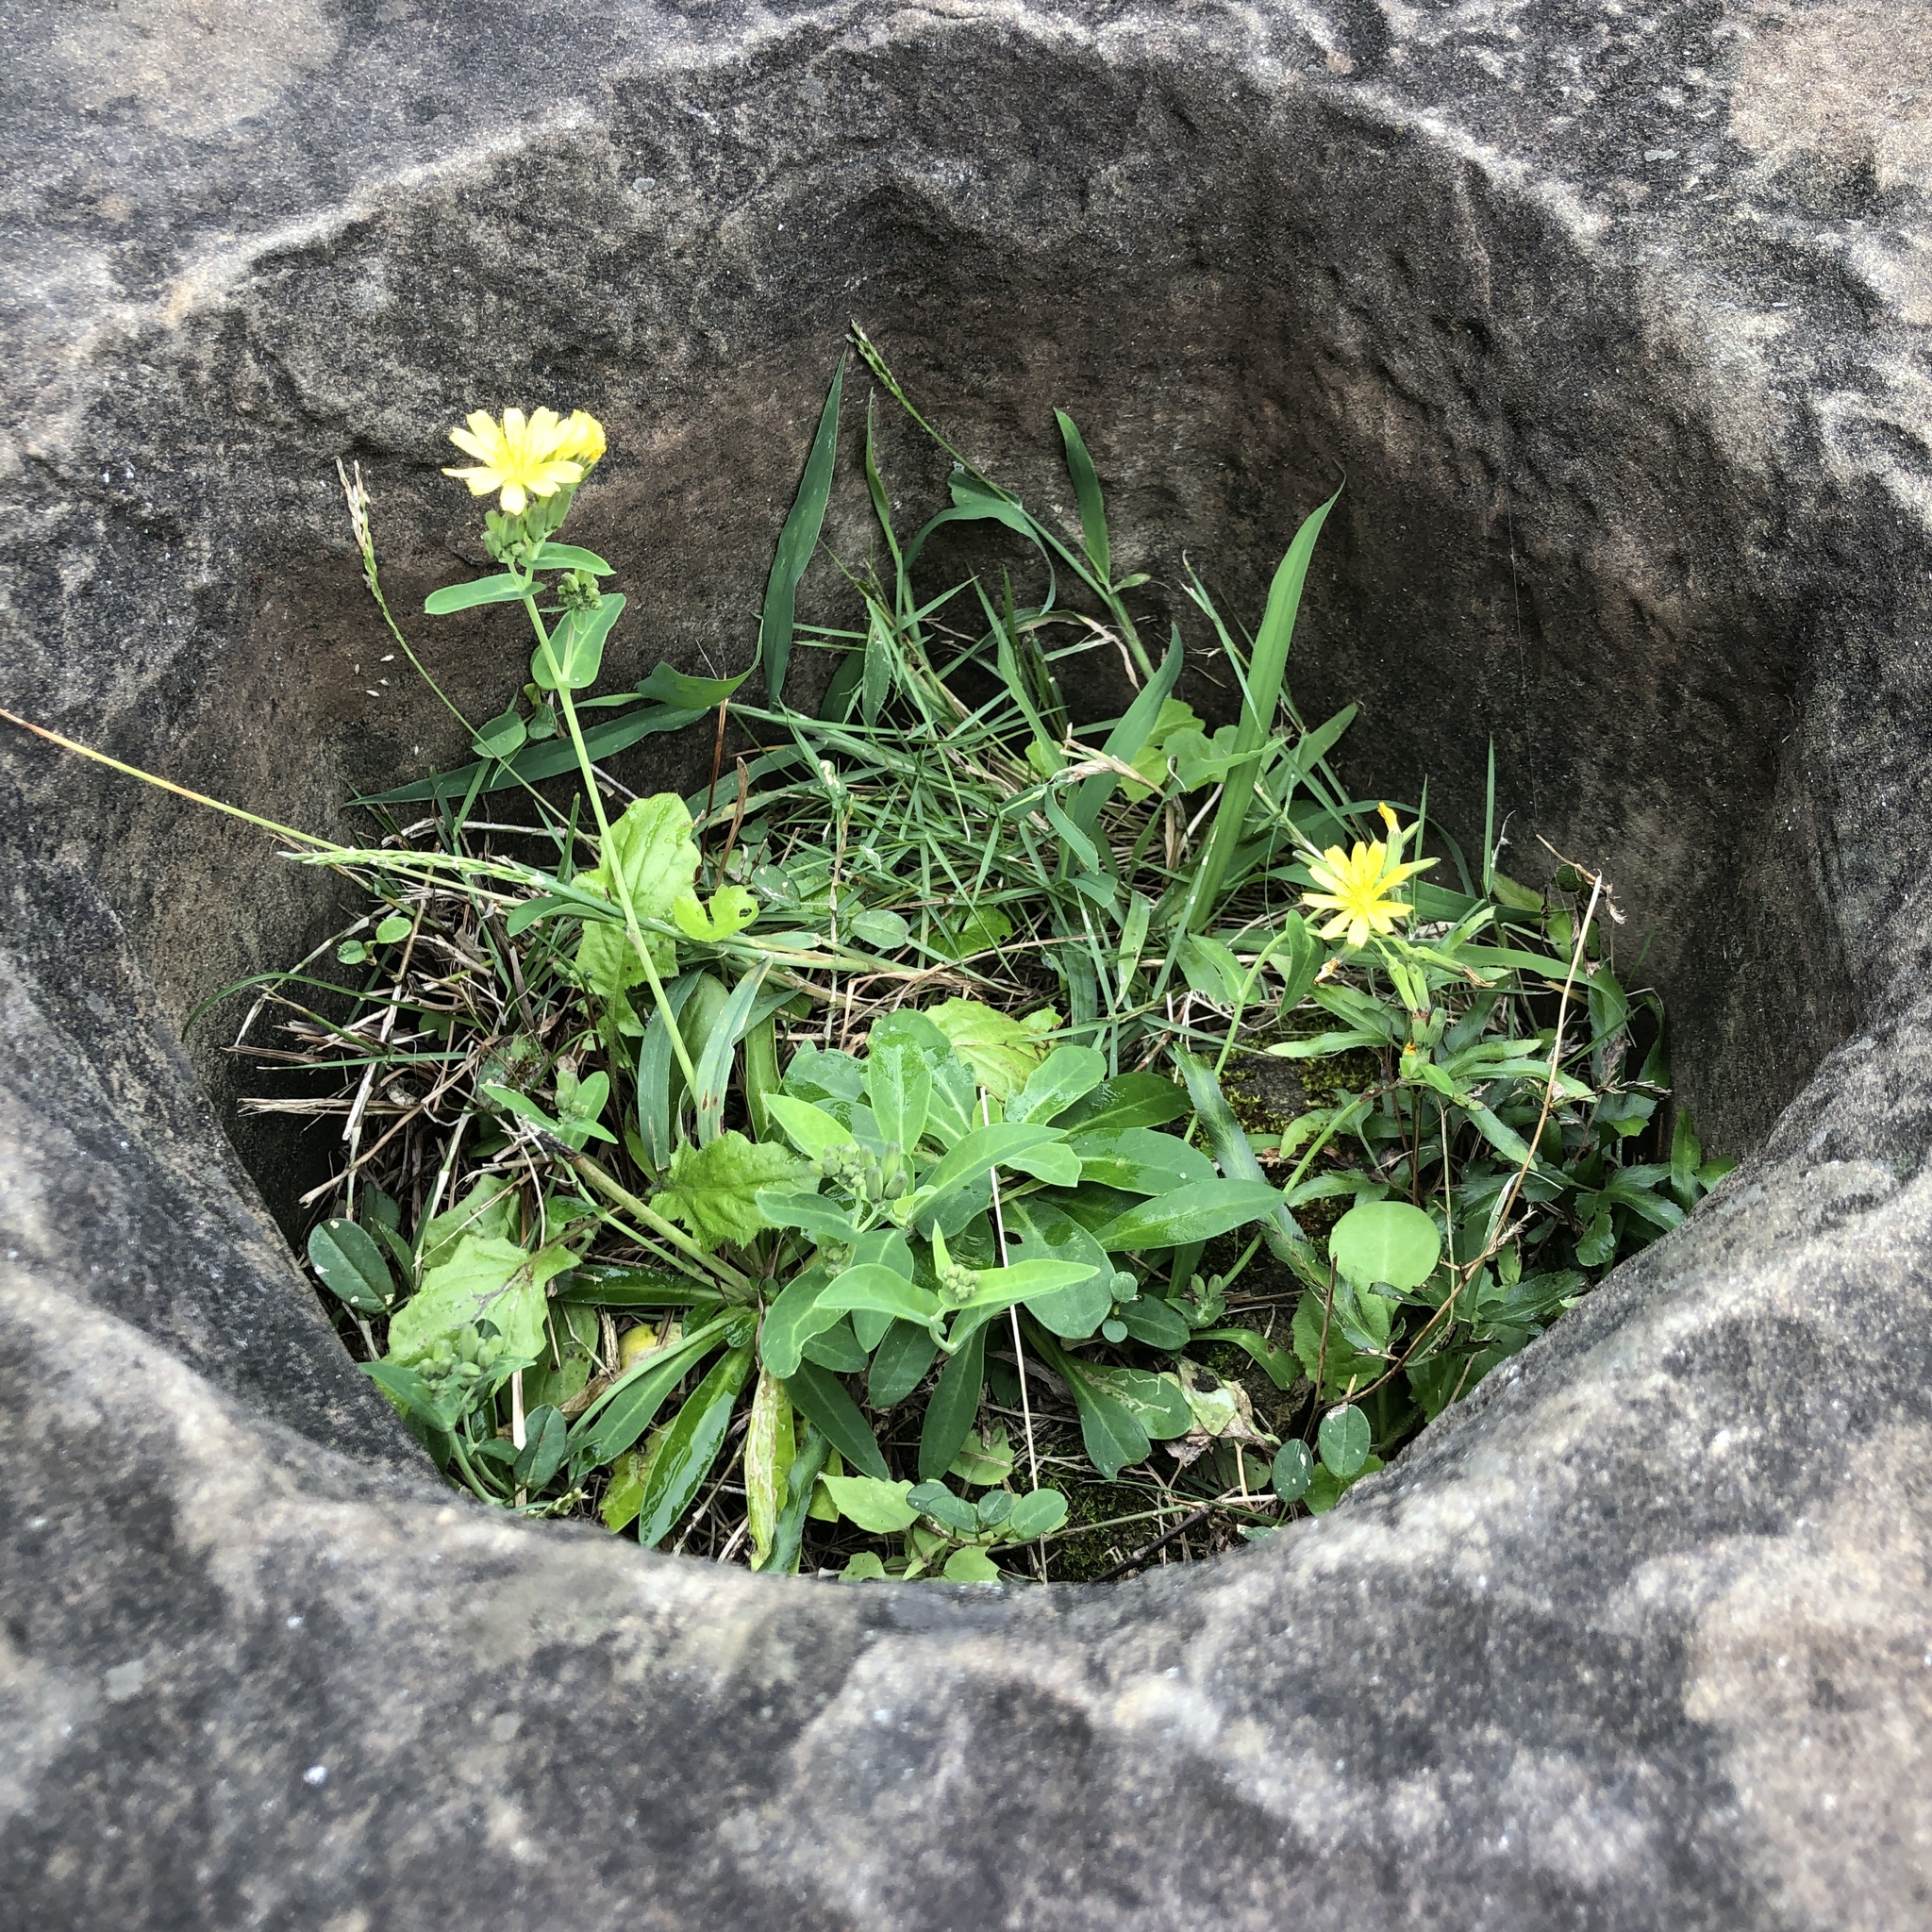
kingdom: Plantae
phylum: Tracheophyta
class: Magnoliopsida
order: Asterales
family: Asteraceae
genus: Crepidiastrum
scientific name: Crepidiastrum lanceolatum
